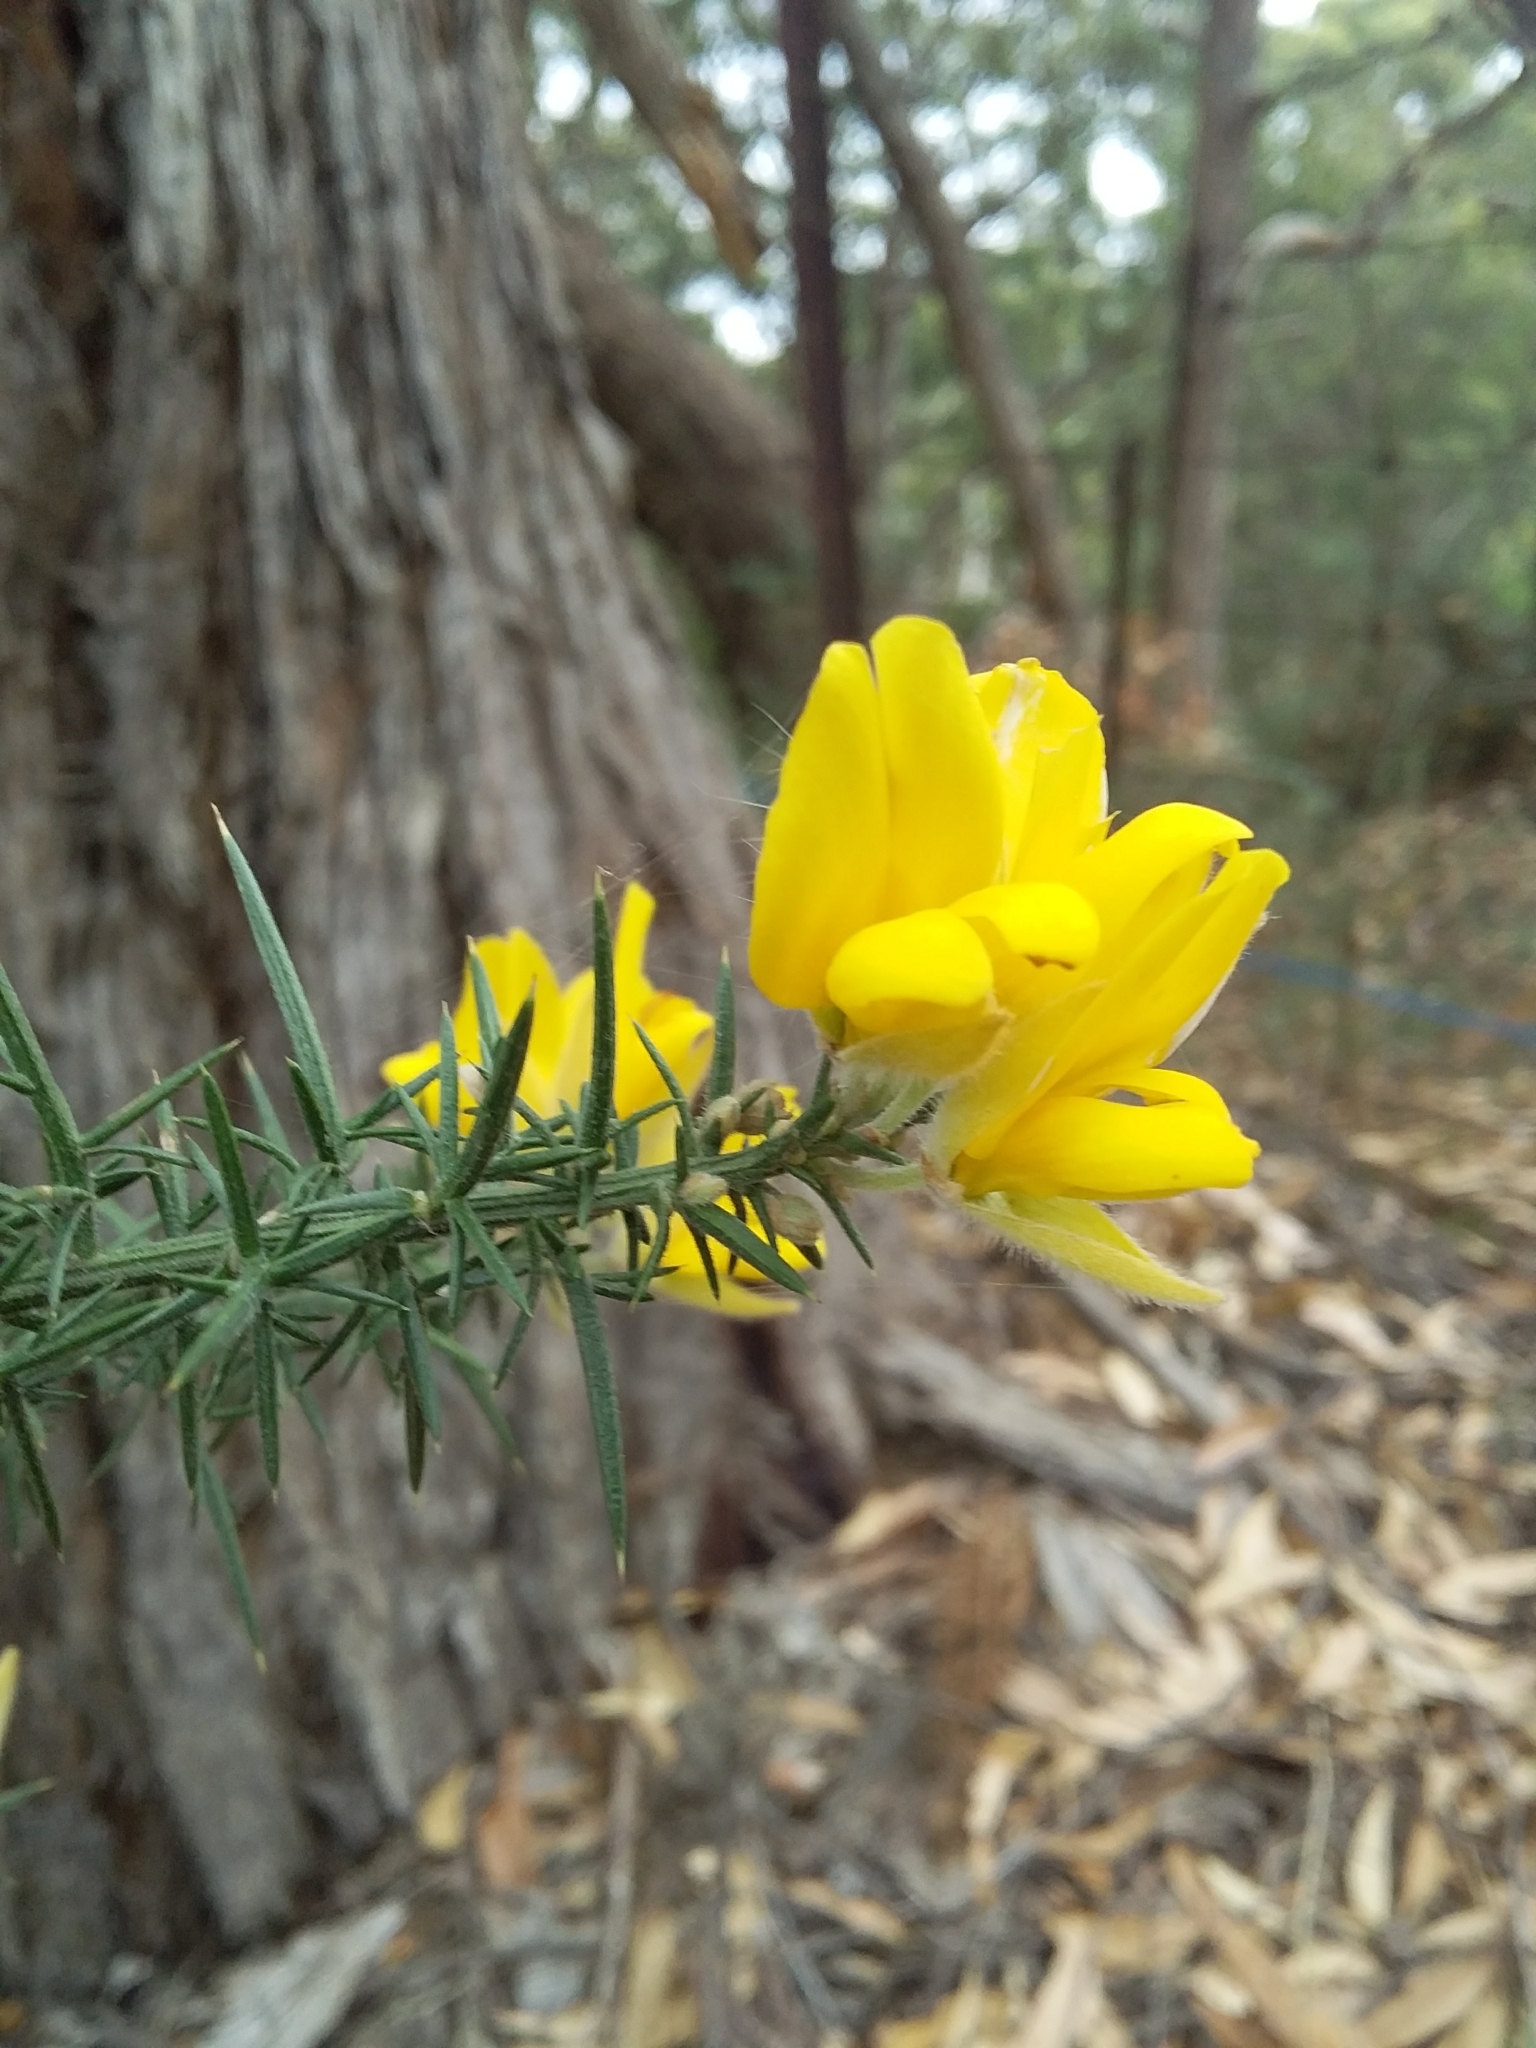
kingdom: Plantae
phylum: Tracheophyta
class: Magnoliopsida
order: Fabales
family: Fabaceae
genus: Ulex
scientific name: Ulex europaeus
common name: Common gorse
